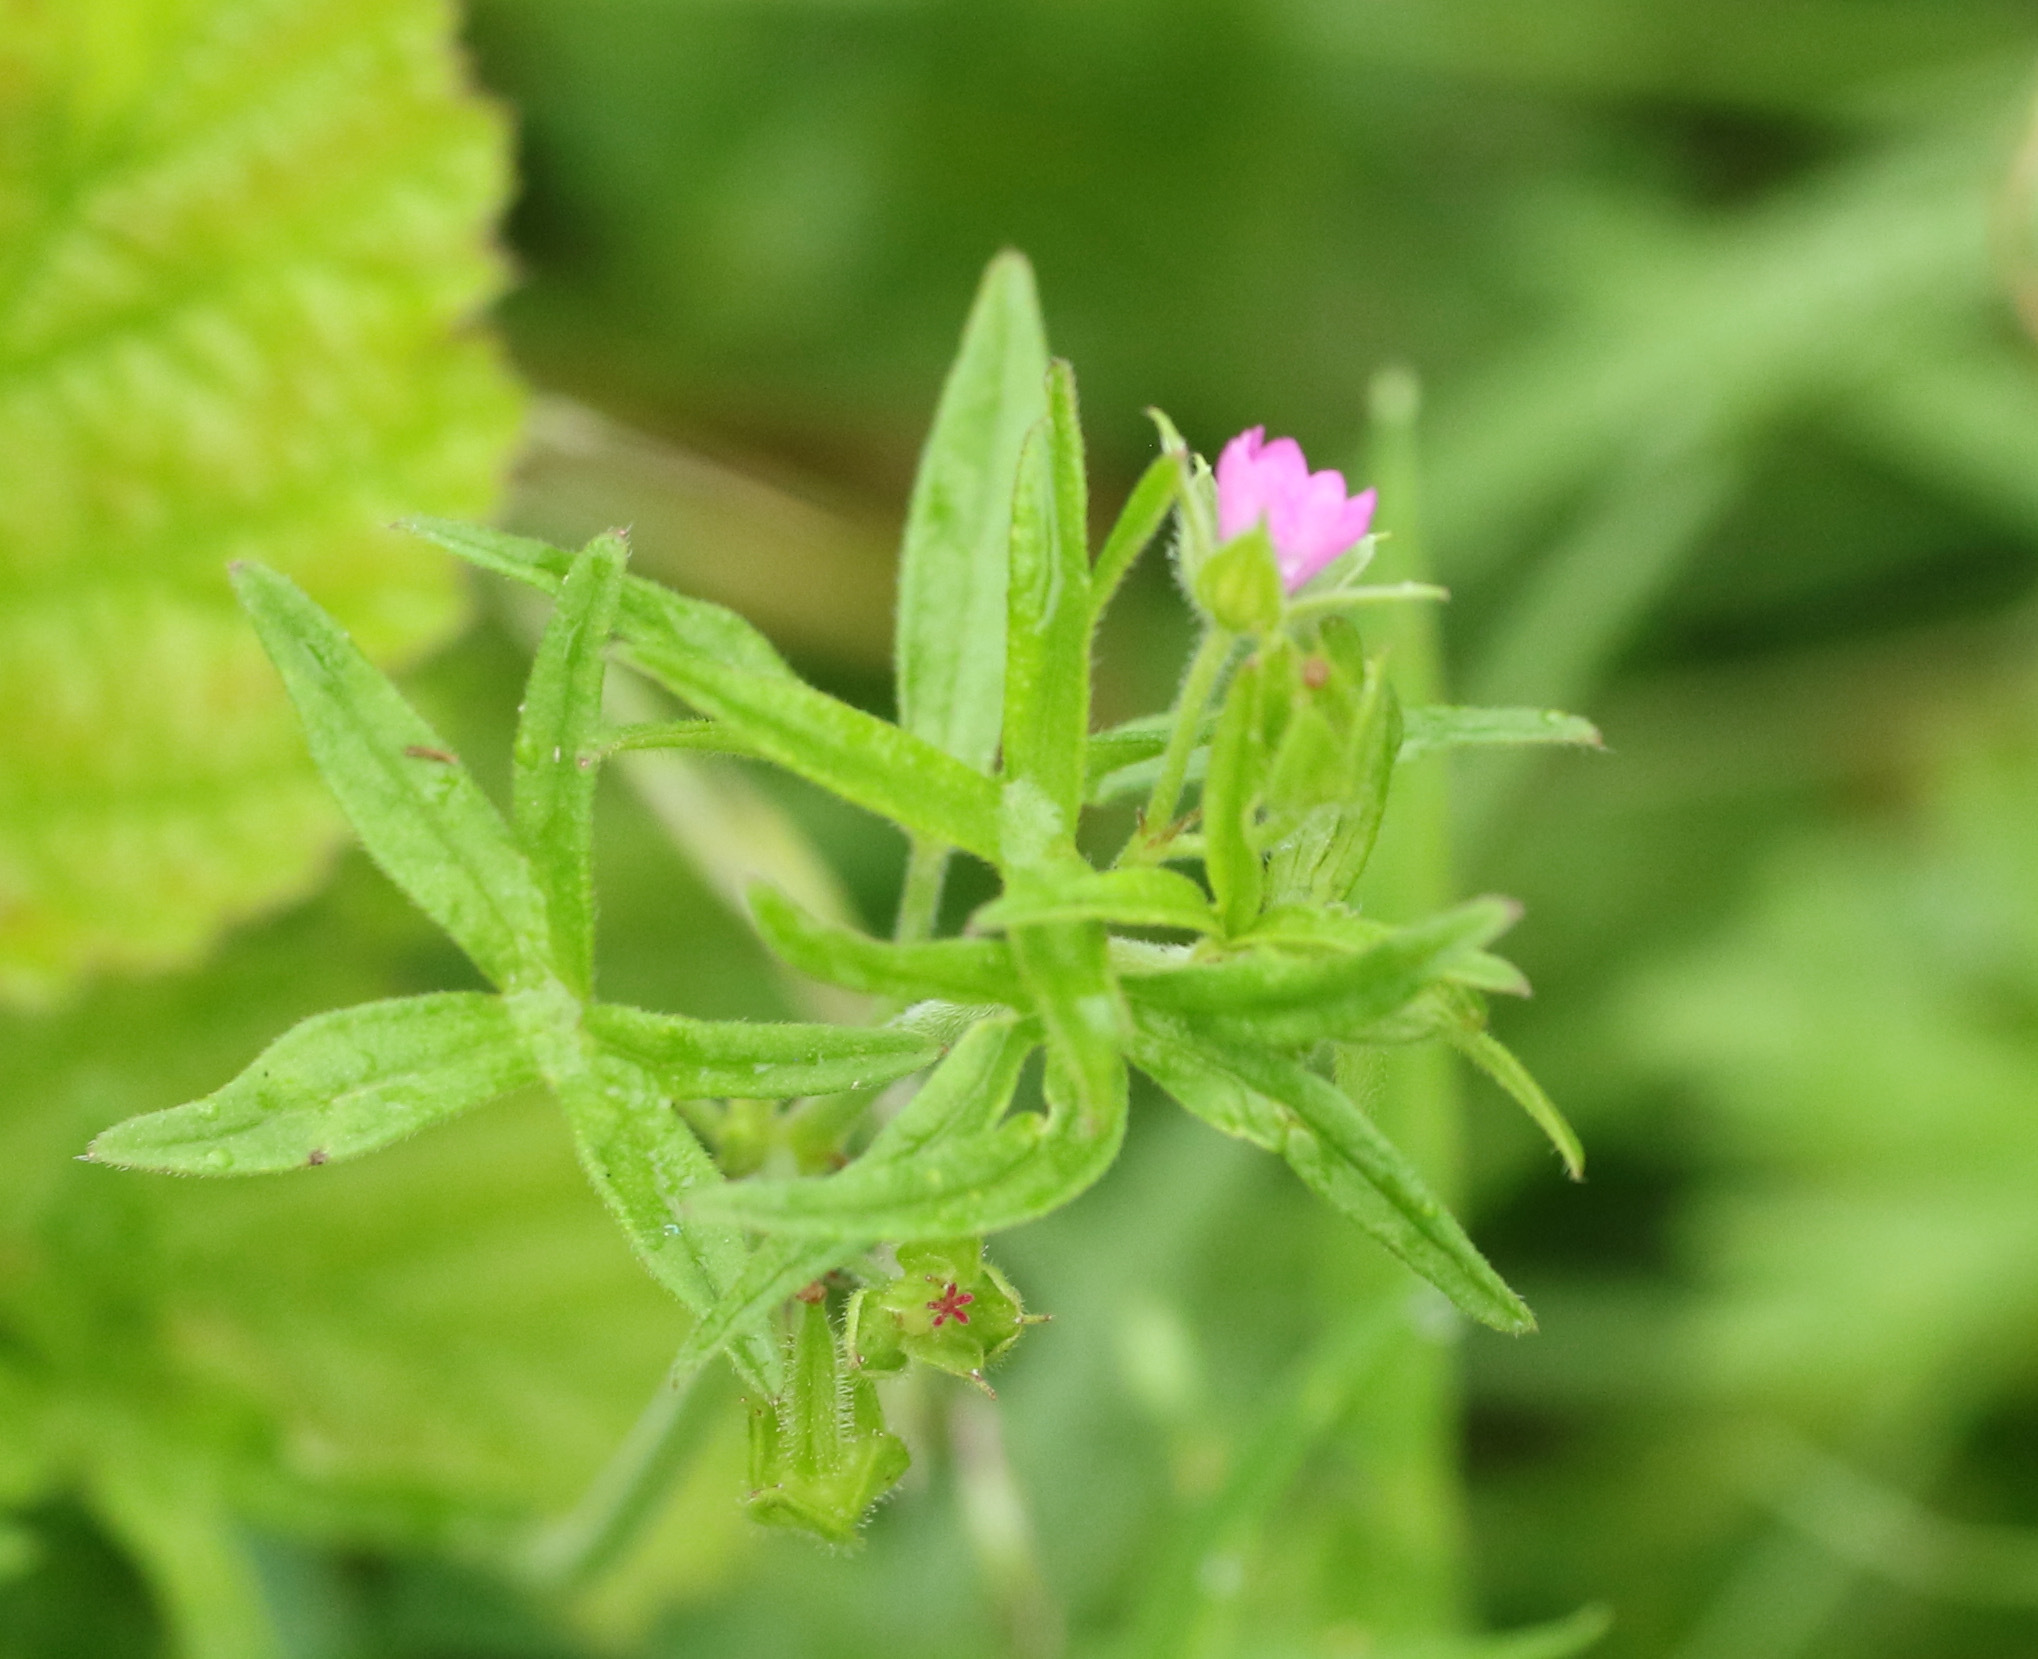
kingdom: Plantae
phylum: Tracheophyta
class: Magnoliopsida
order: Geraniales
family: Geraniaceae
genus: Geranium
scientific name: Geranium dissectum
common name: Cut-leaved crane's-bill
